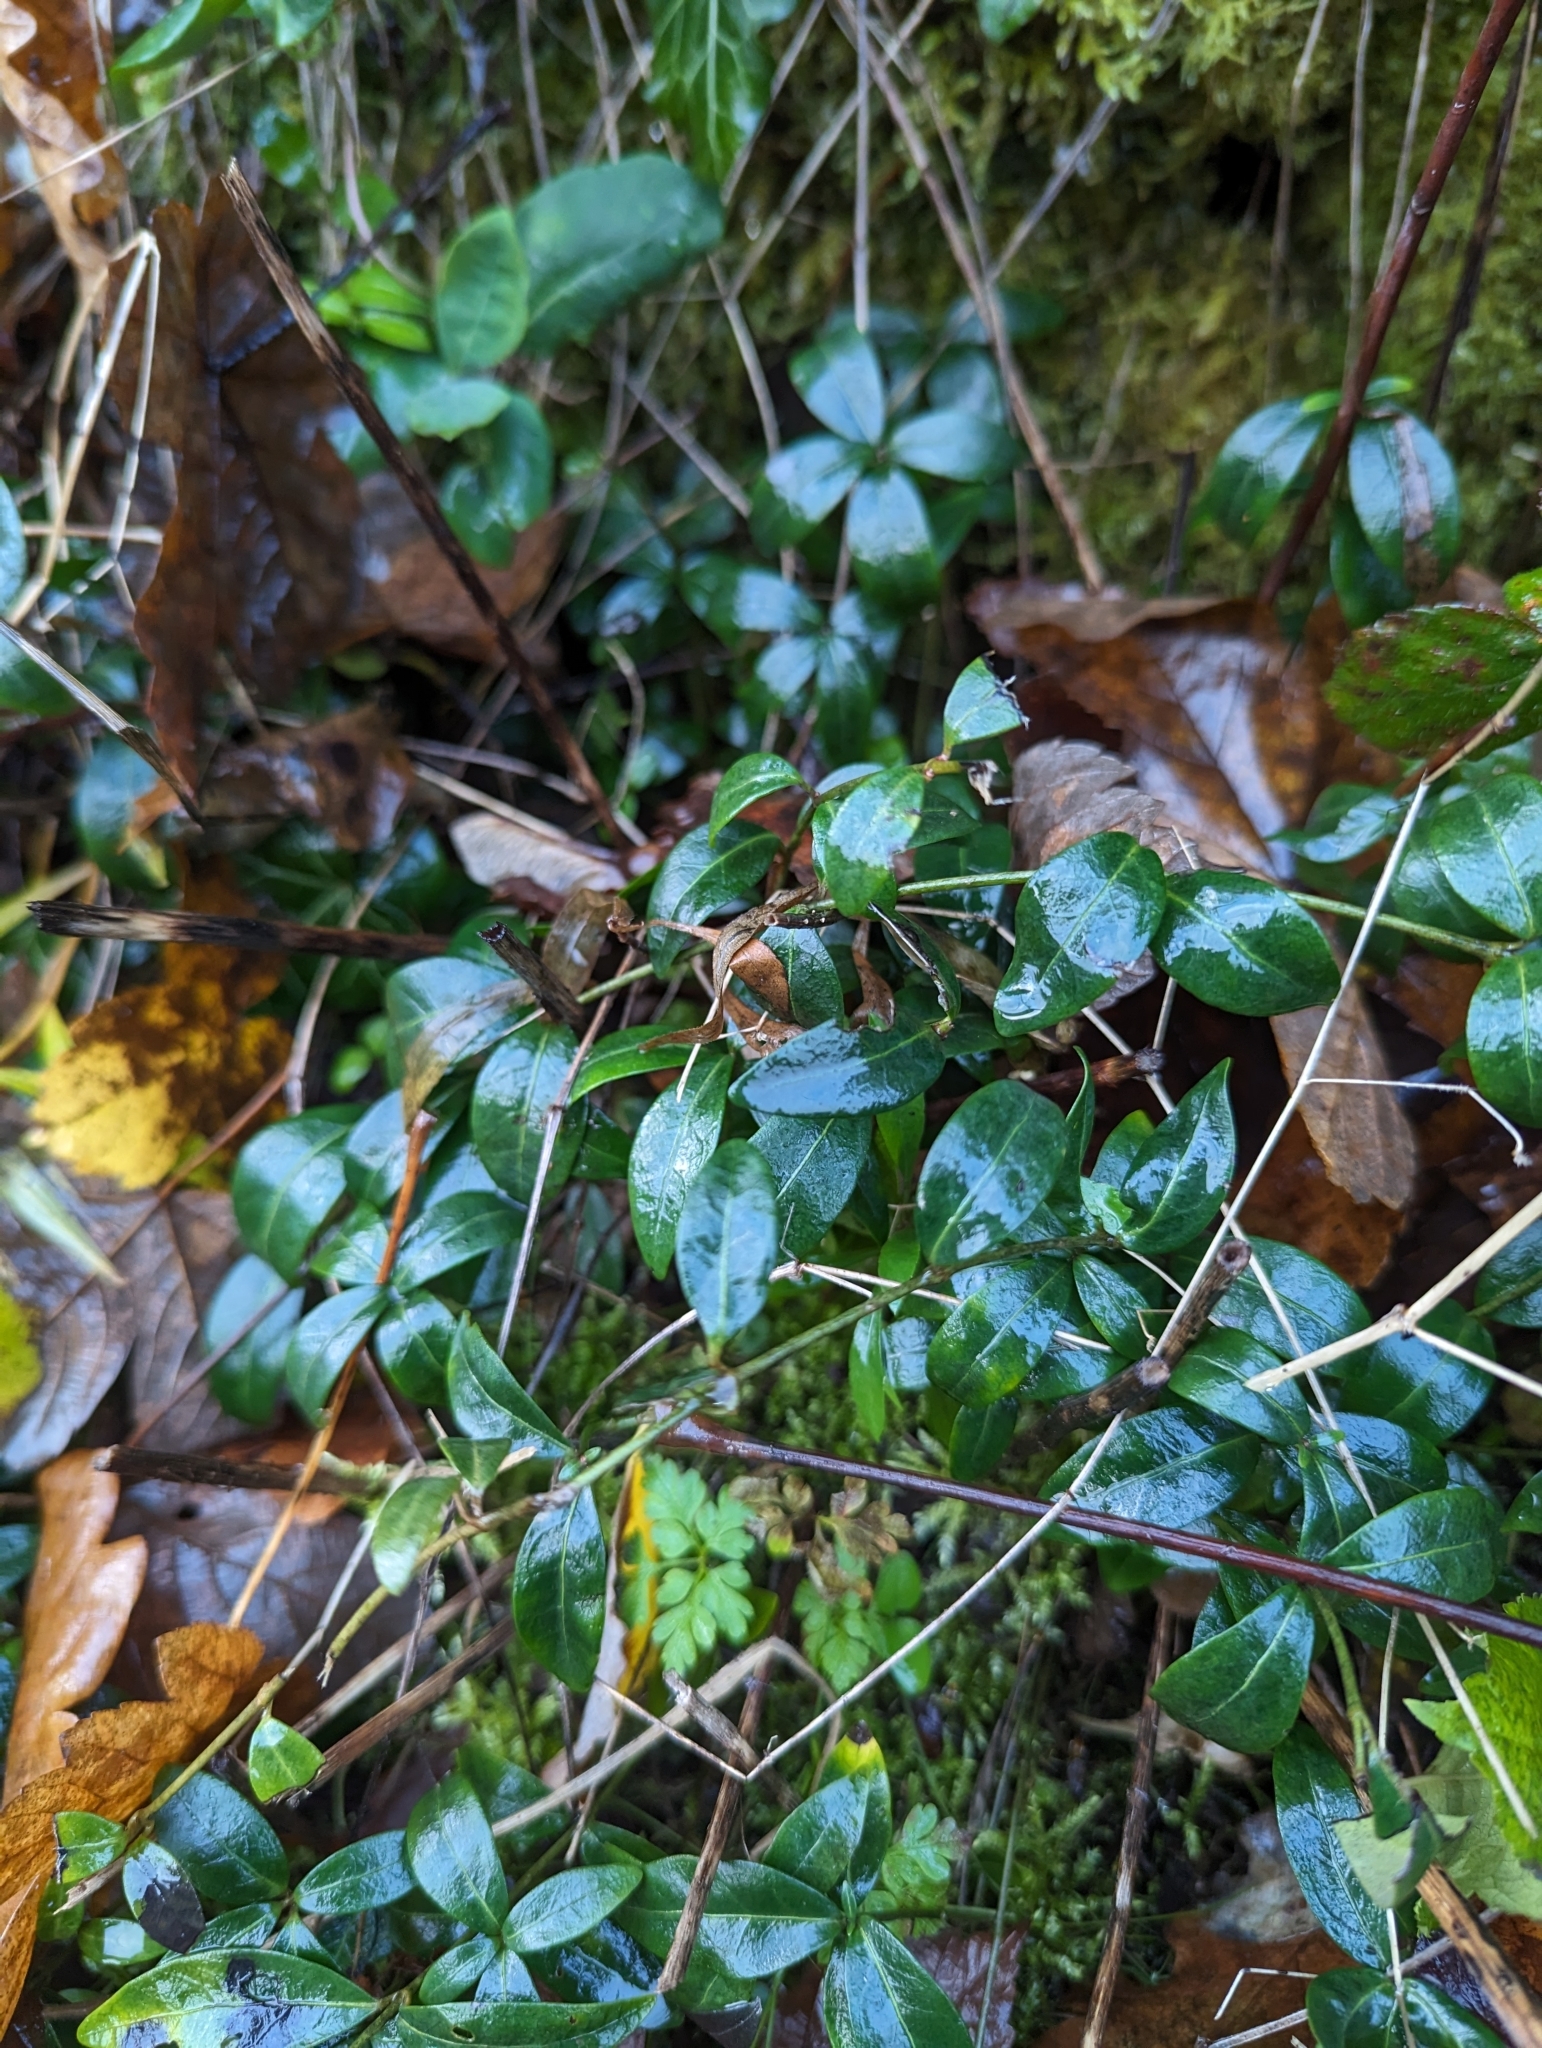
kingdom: Plantae
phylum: Tracheophyta
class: Magnoliopsida
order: Gentianales
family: Apocynaceae
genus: Vinca
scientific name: Vinca minor
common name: Lesser periwinkle
